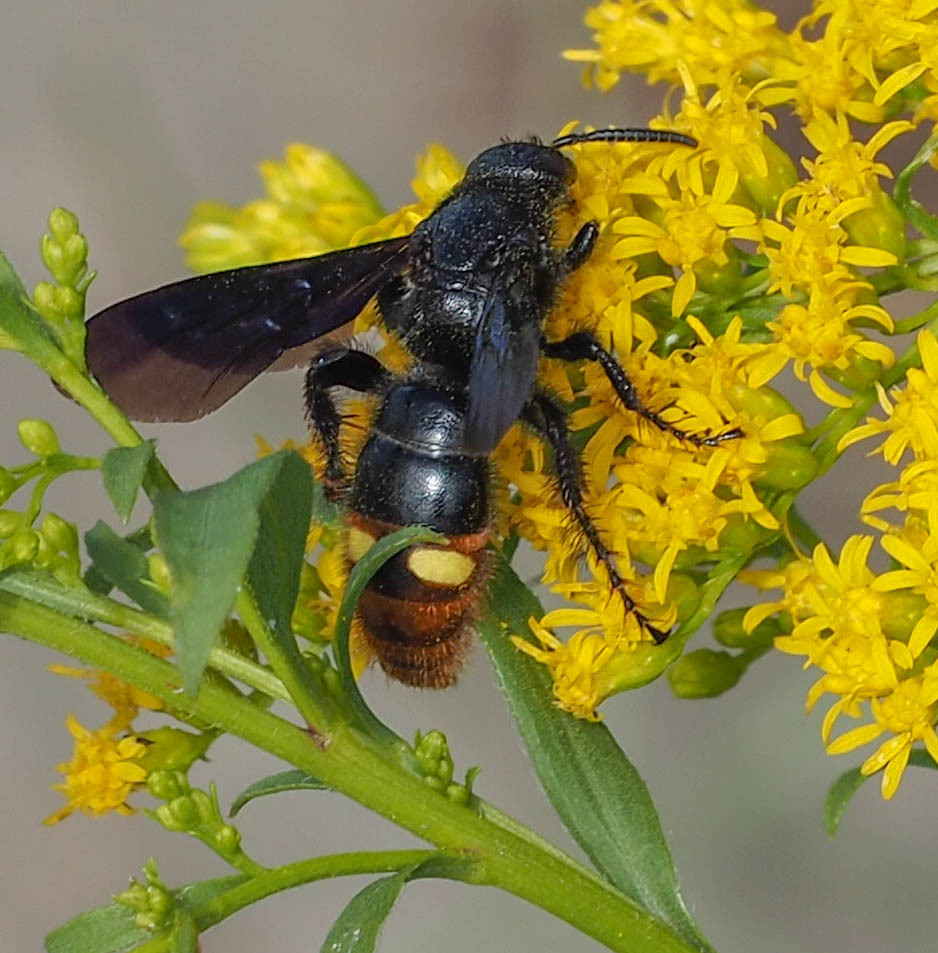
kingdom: Animalia
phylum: Arthropoda
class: Insecta
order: Hymenoptera
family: Scoliidae
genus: Scolia
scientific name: Scolia dubia
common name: Blue-winged scoliid wasp
